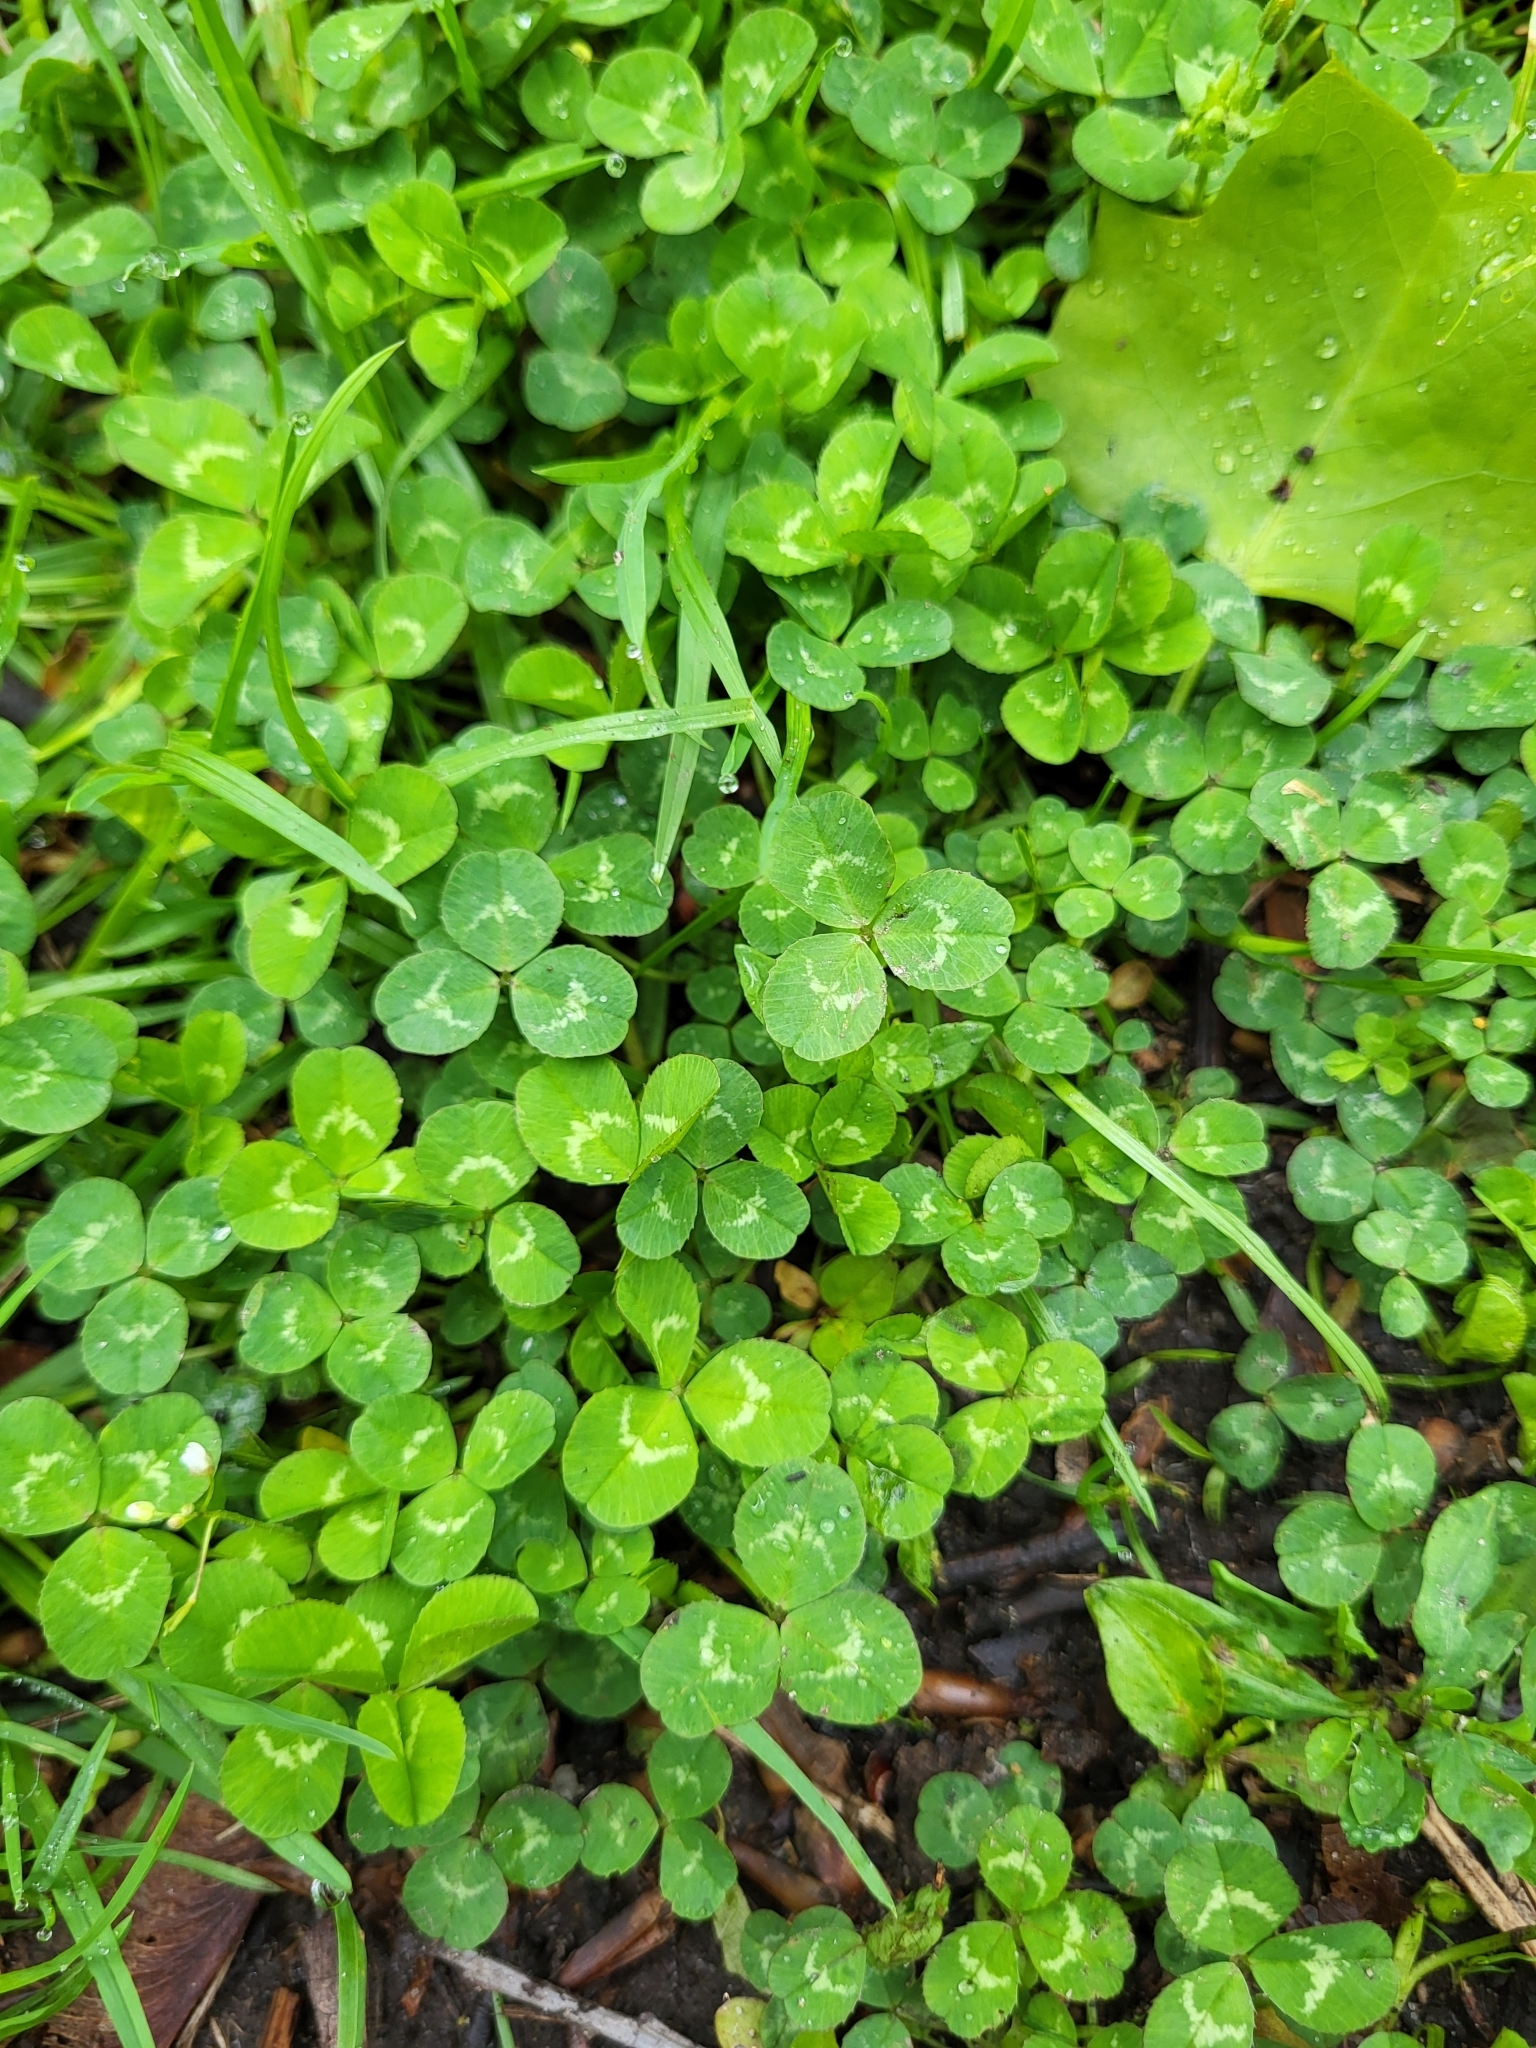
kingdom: Plantae
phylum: Tracheophyta
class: Magnoliopsida
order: Fabales
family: Fabaceae
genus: Trifolium
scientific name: Trifolium repens
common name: White clover
